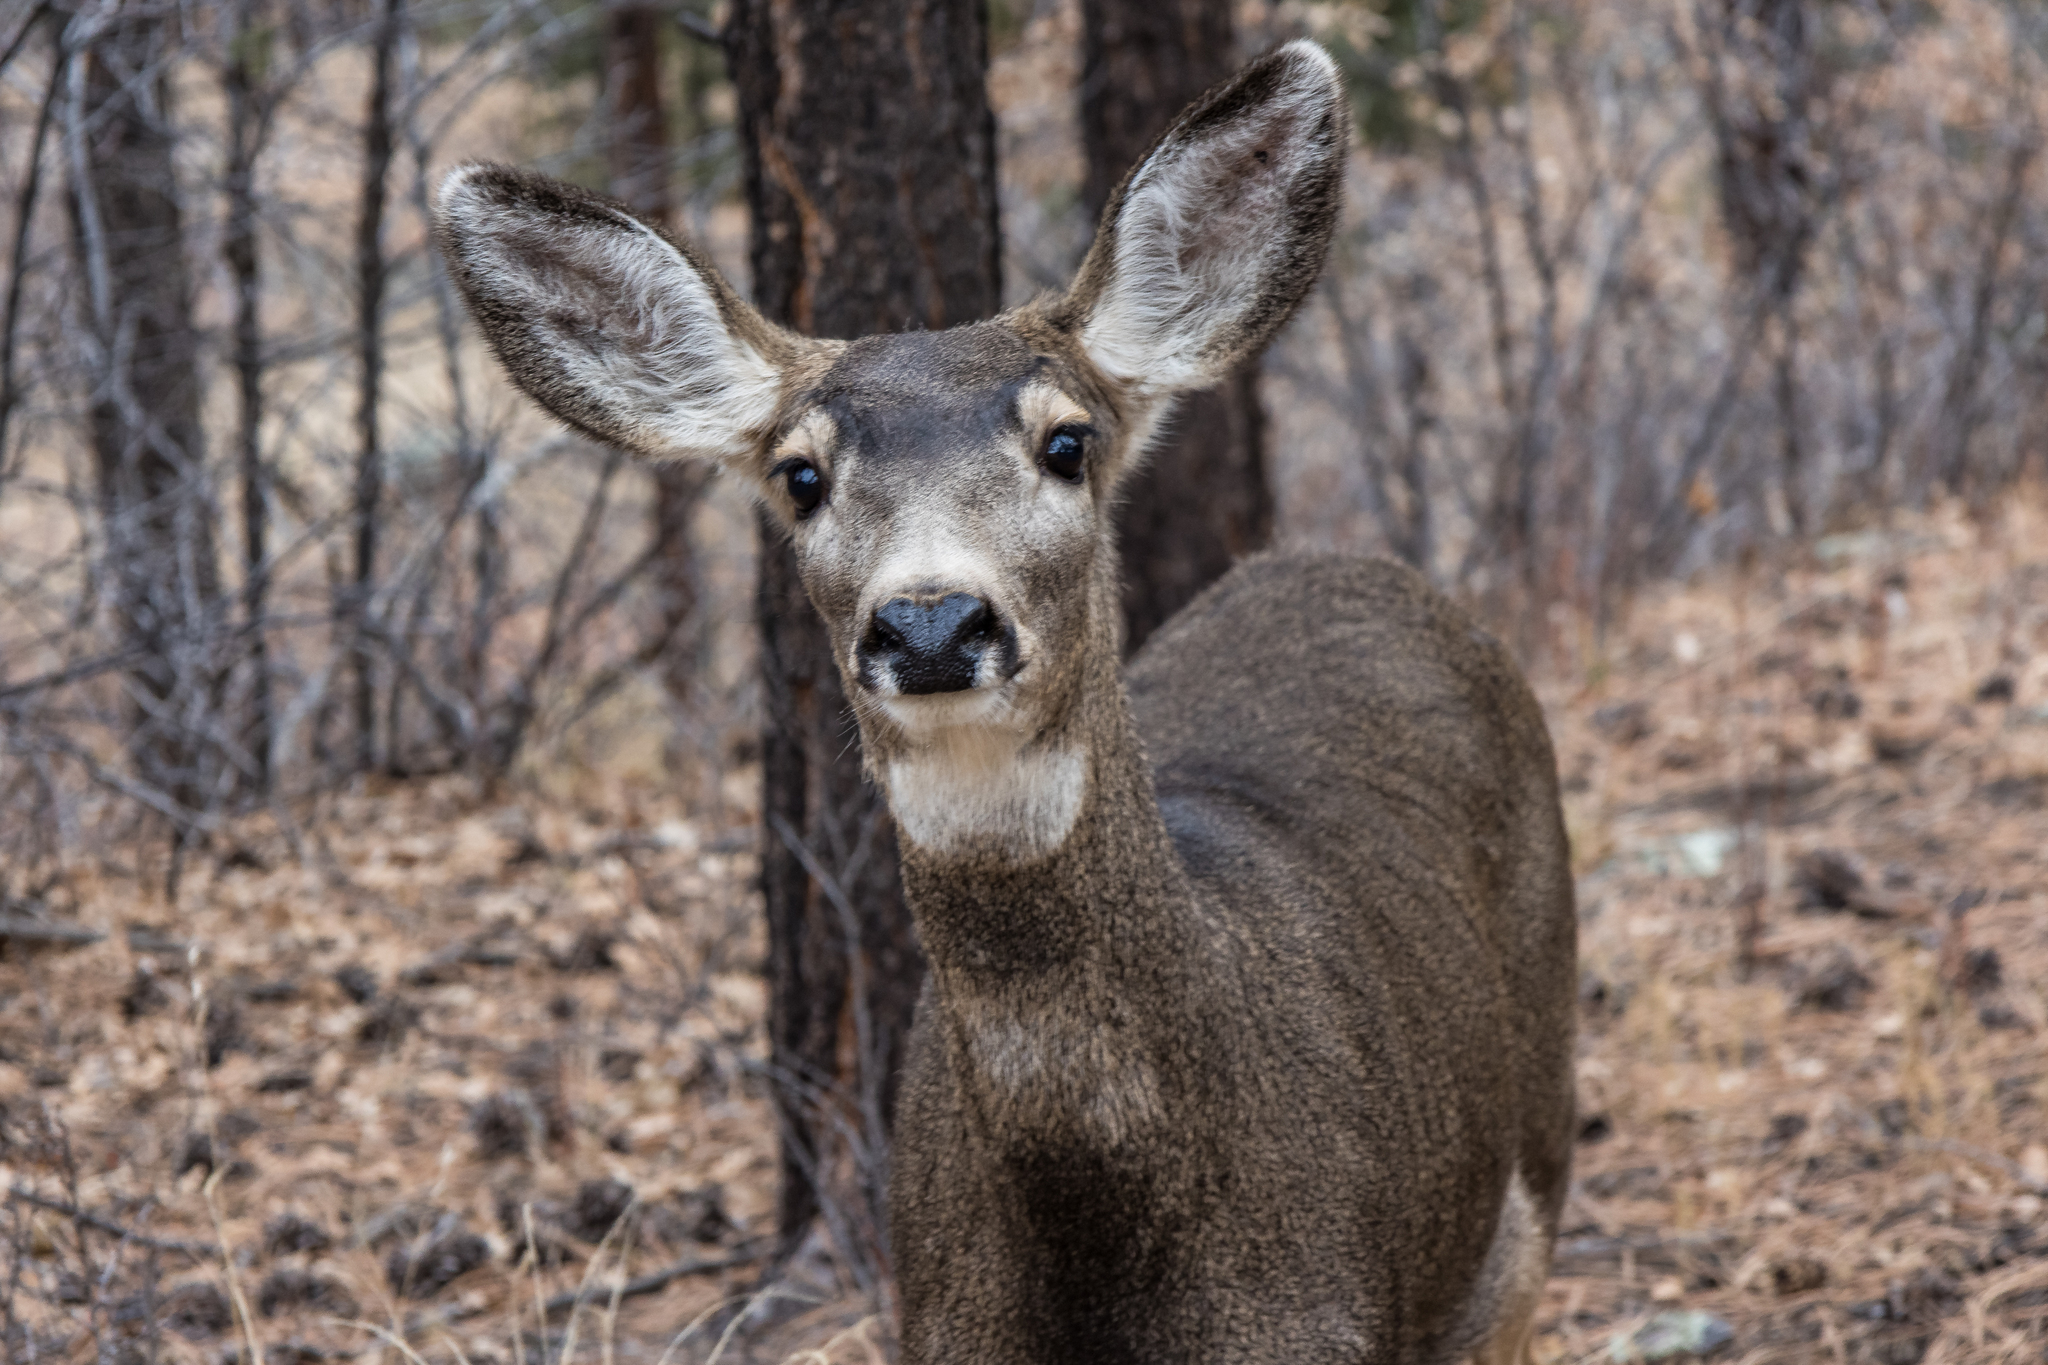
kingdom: Animalia
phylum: Chordata
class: Mammalia
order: Artiodactyla
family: Cervidae
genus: Odocoileus
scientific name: Odocoileus hemionus
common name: Mule deer
